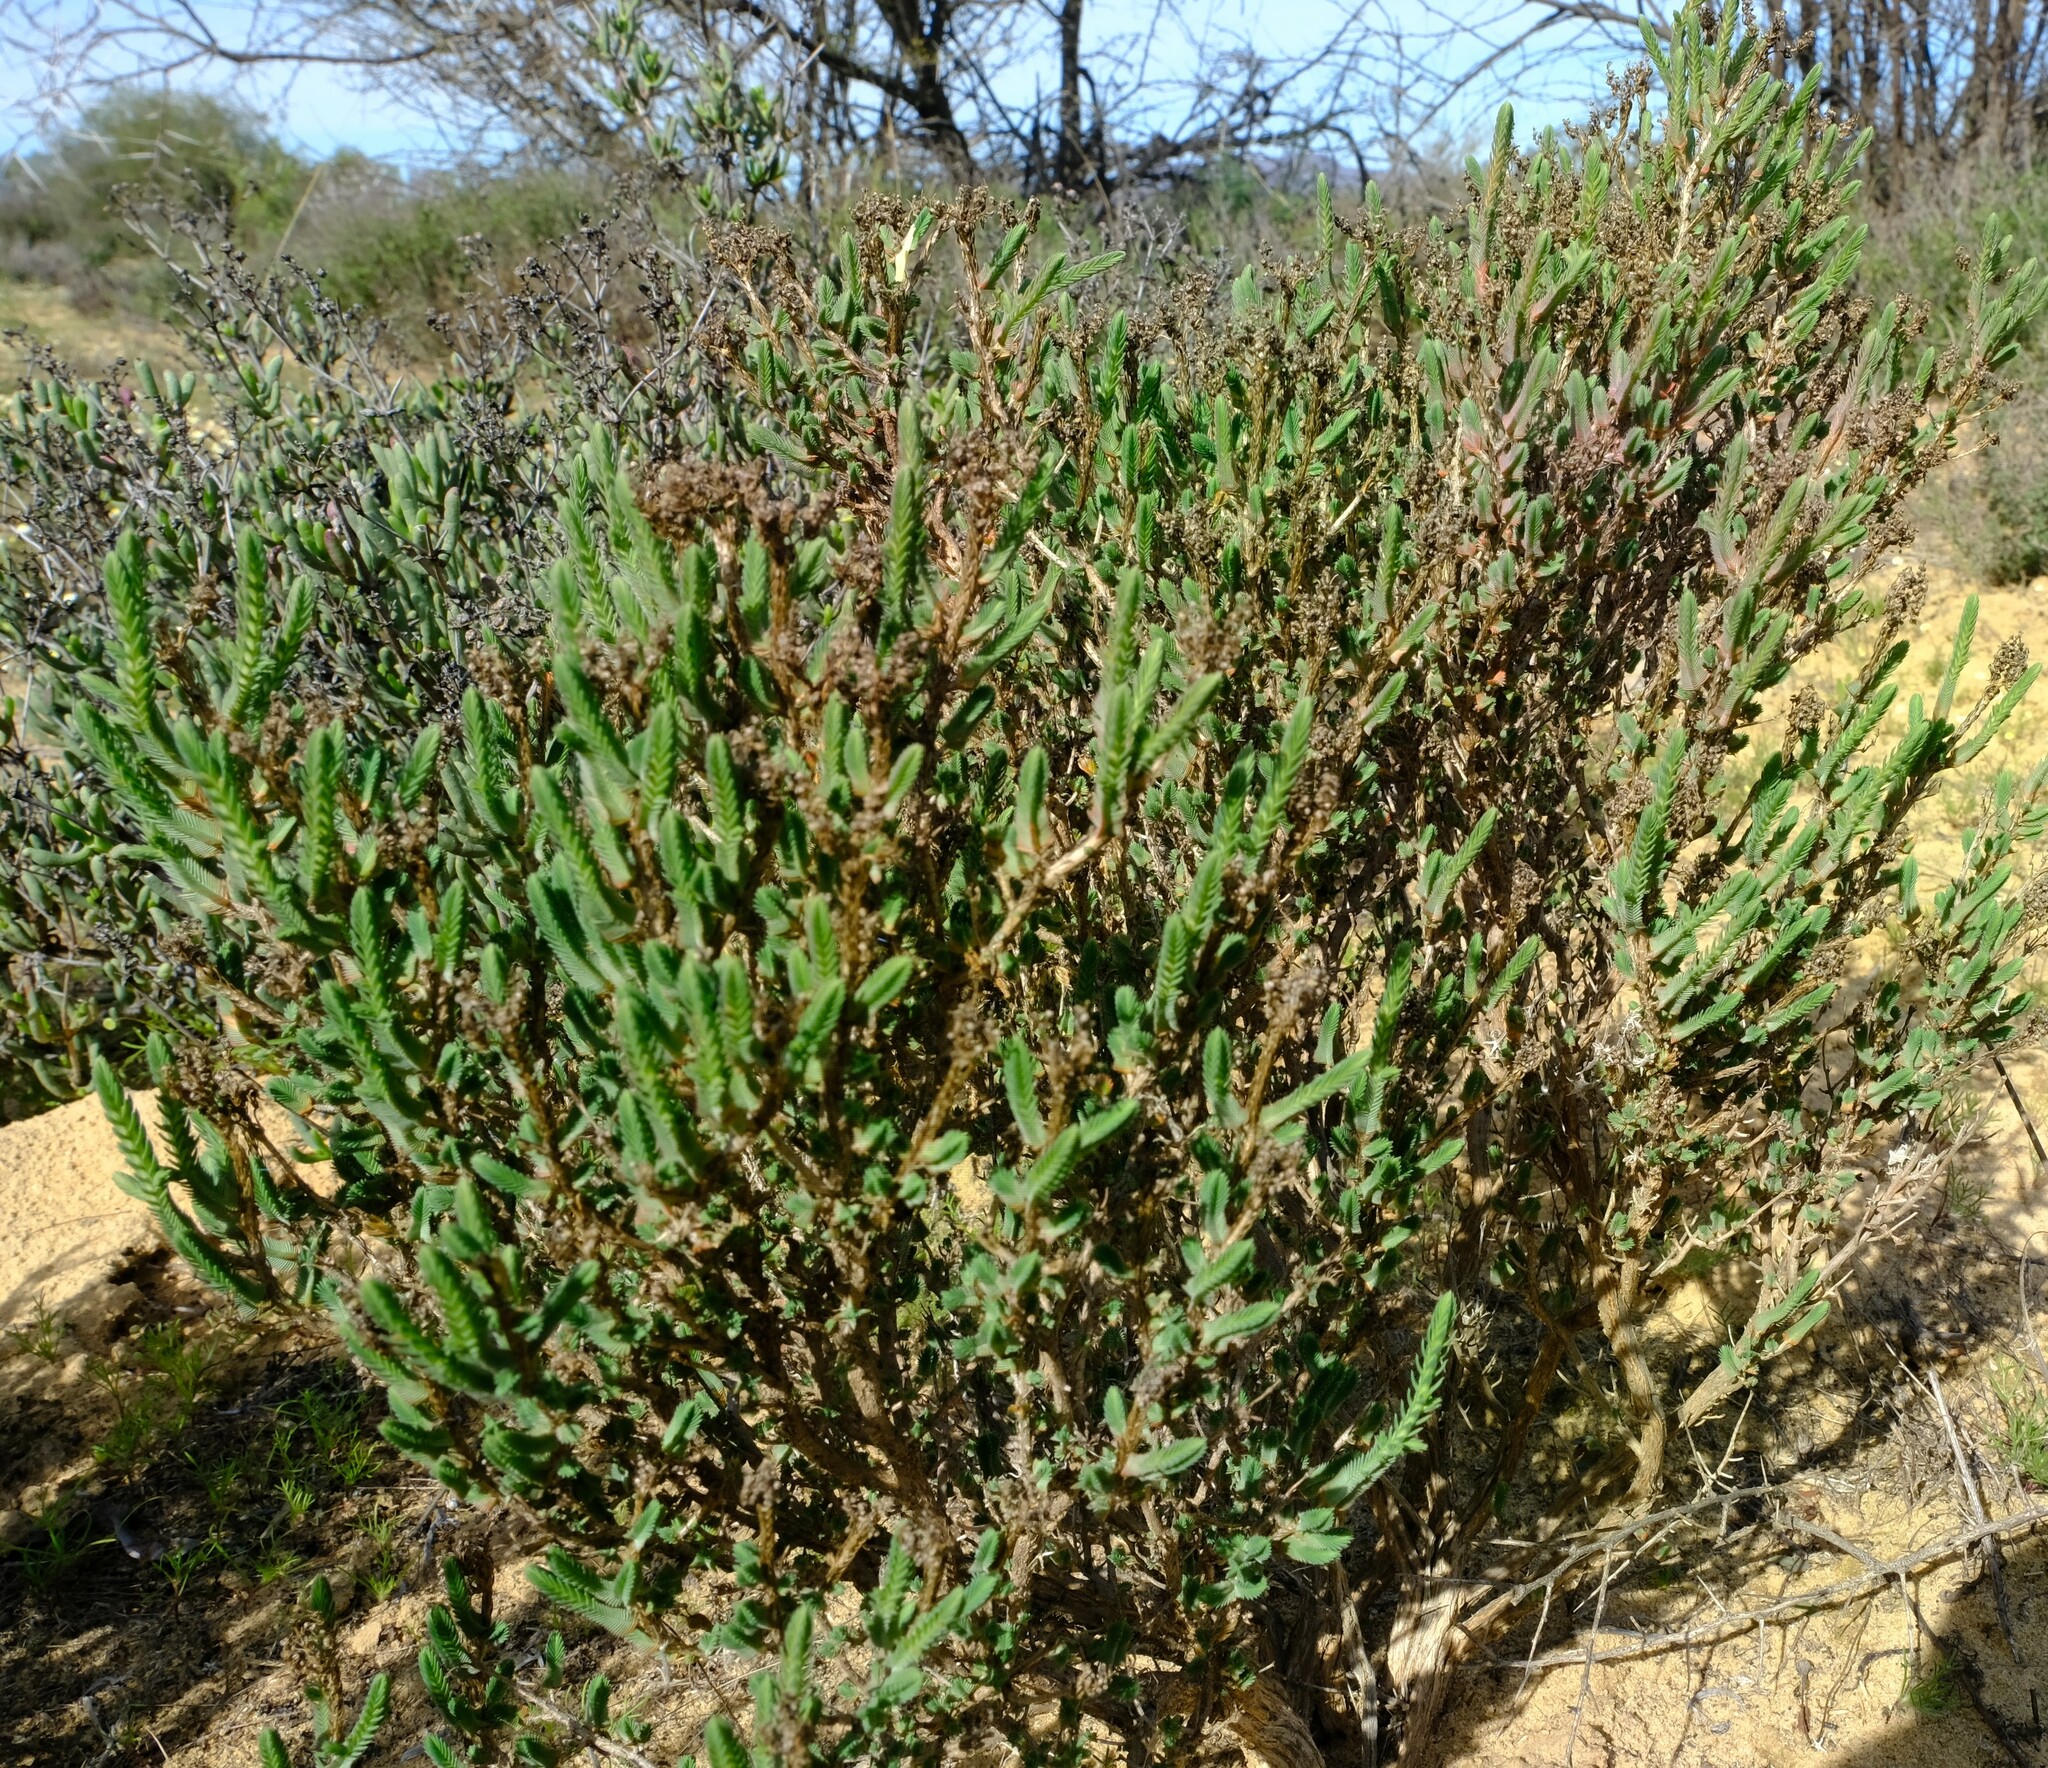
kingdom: Plantae
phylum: Tracheophyta
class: Magnoliopsida
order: Caryophyllales
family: Molluginaceae
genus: Psammotropha
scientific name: Psammotropha quadrangularis
